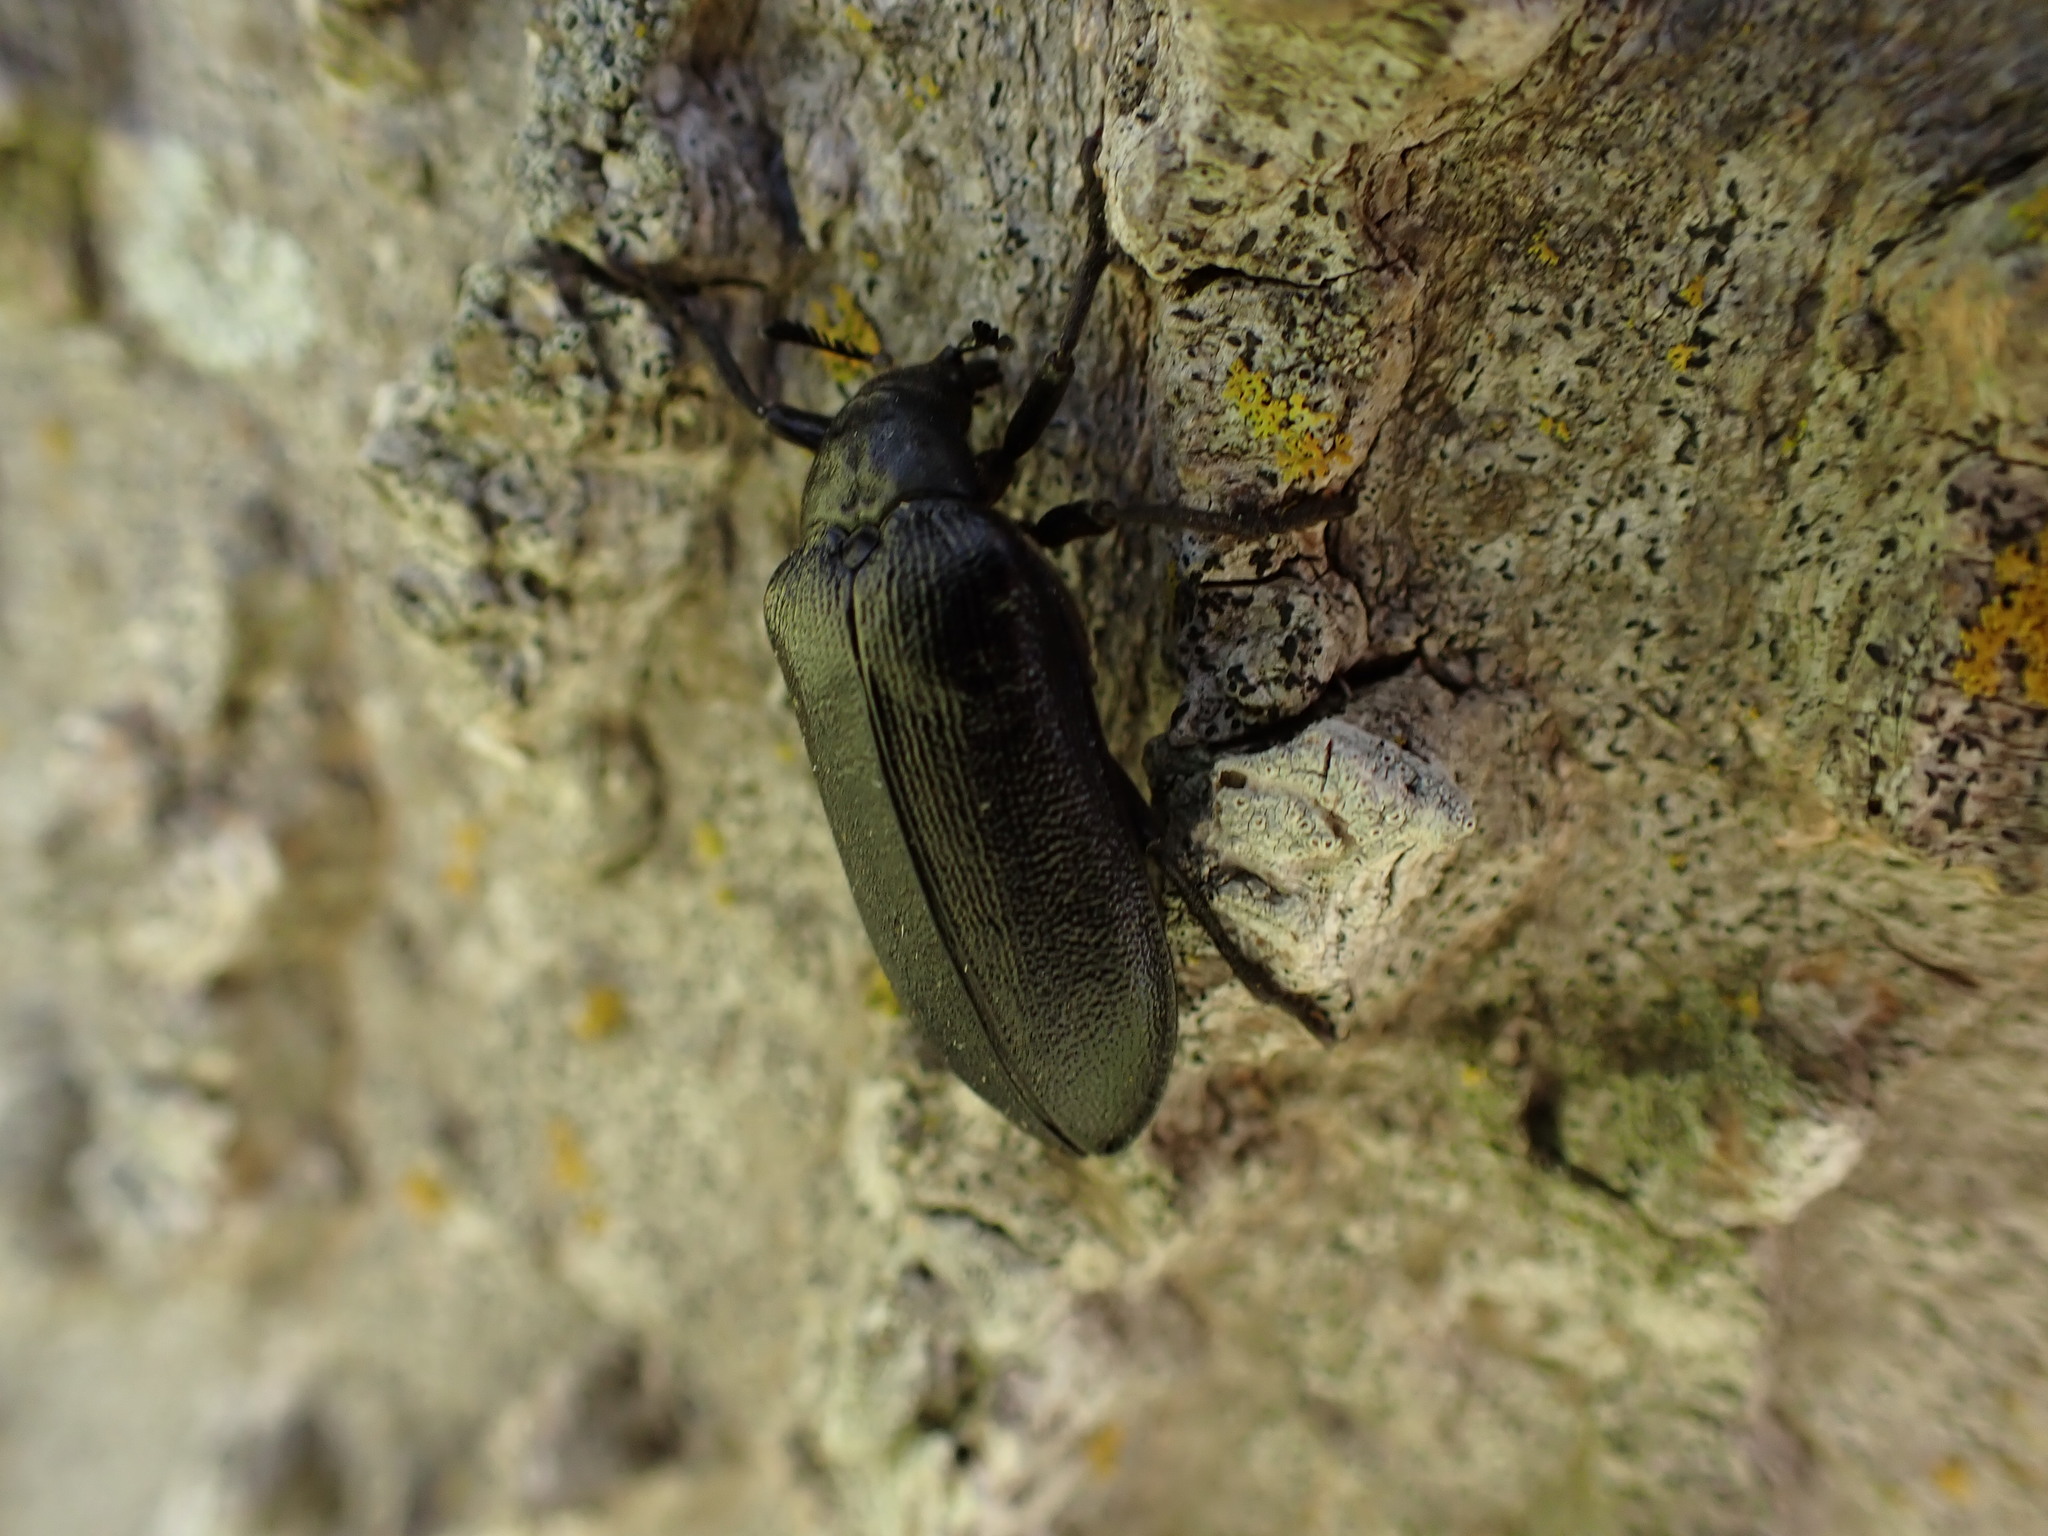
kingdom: Animalia
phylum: Arthropoda
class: Insecta
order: Coleoptera
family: Rhipiceridae
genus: Sandalus
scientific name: Sandalus niger
